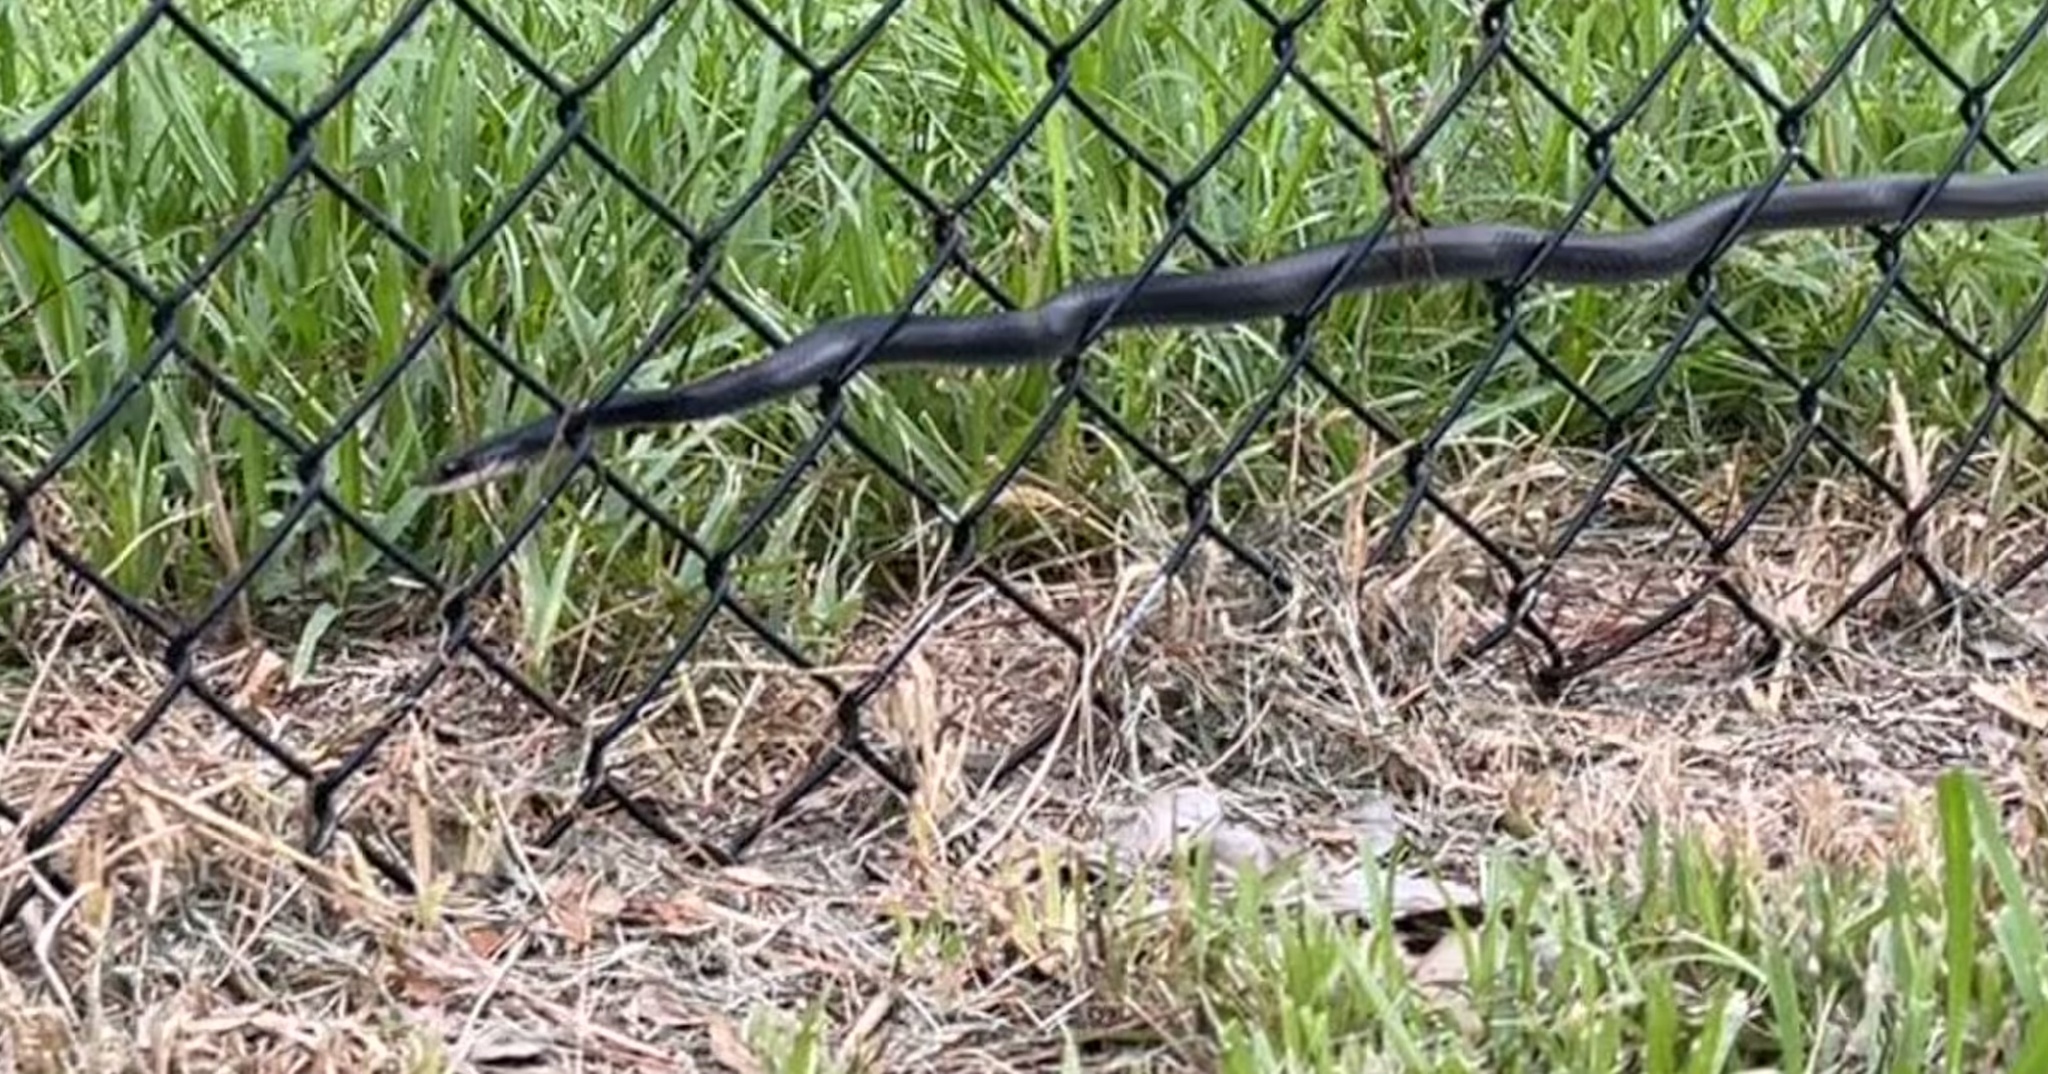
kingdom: Animalia
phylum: Chordata
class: Squamata
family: Colubridae
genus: Coluber
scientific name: Coluber constrictor
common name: Eastern racer
